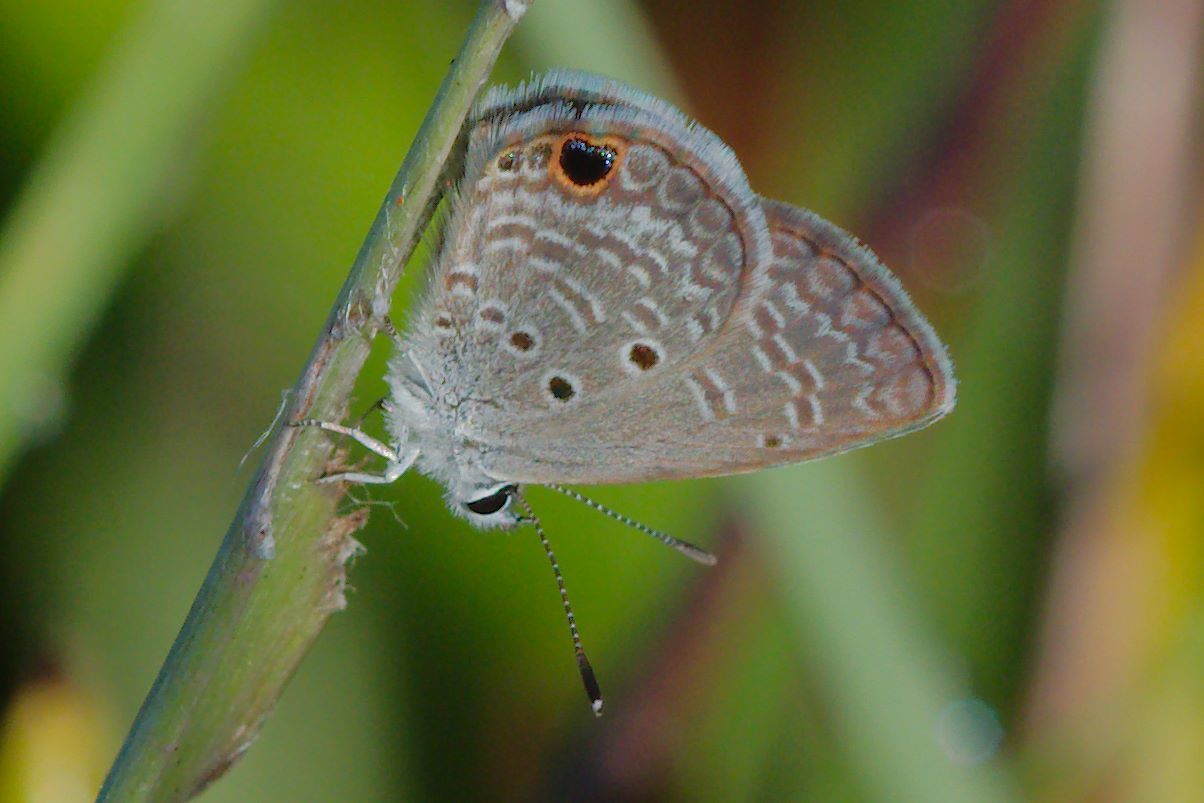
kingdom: Animalia
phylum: Arthropoda
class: Insecta
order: Lepidoptera
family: Lycaenidae
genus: Hemiargus
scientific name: Hemiargus ceraunus
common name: Ceraunus blue
